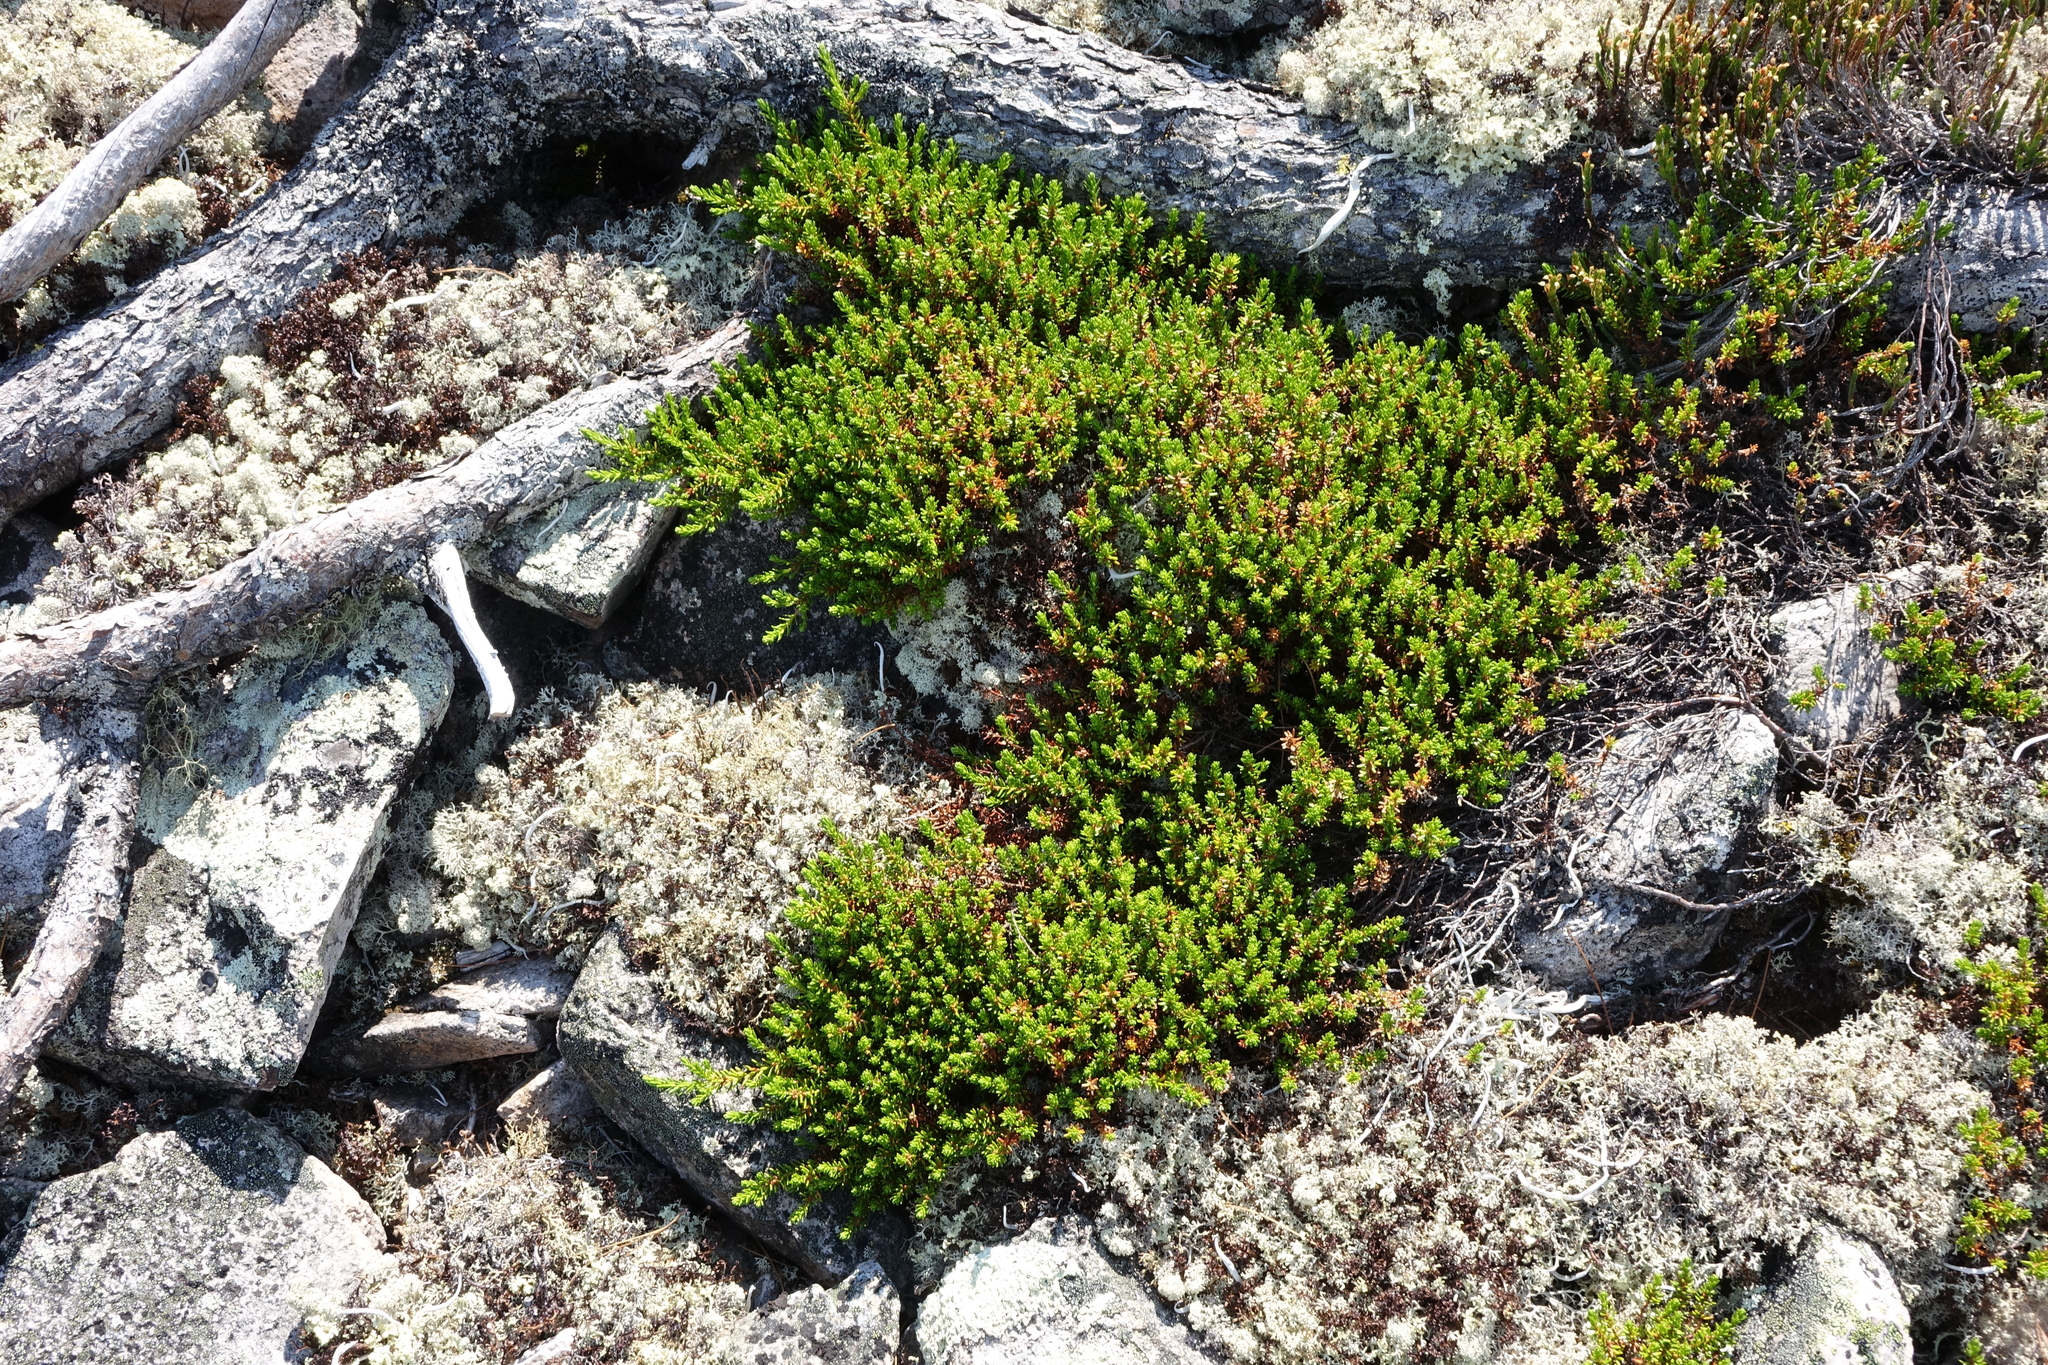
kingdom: Plantae
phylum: Tracheophyta
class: Magnoliopsida
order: Ericales
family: Ericaceae
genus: Empetrum
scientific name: Empetrum nigrum
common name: Black crowberry
